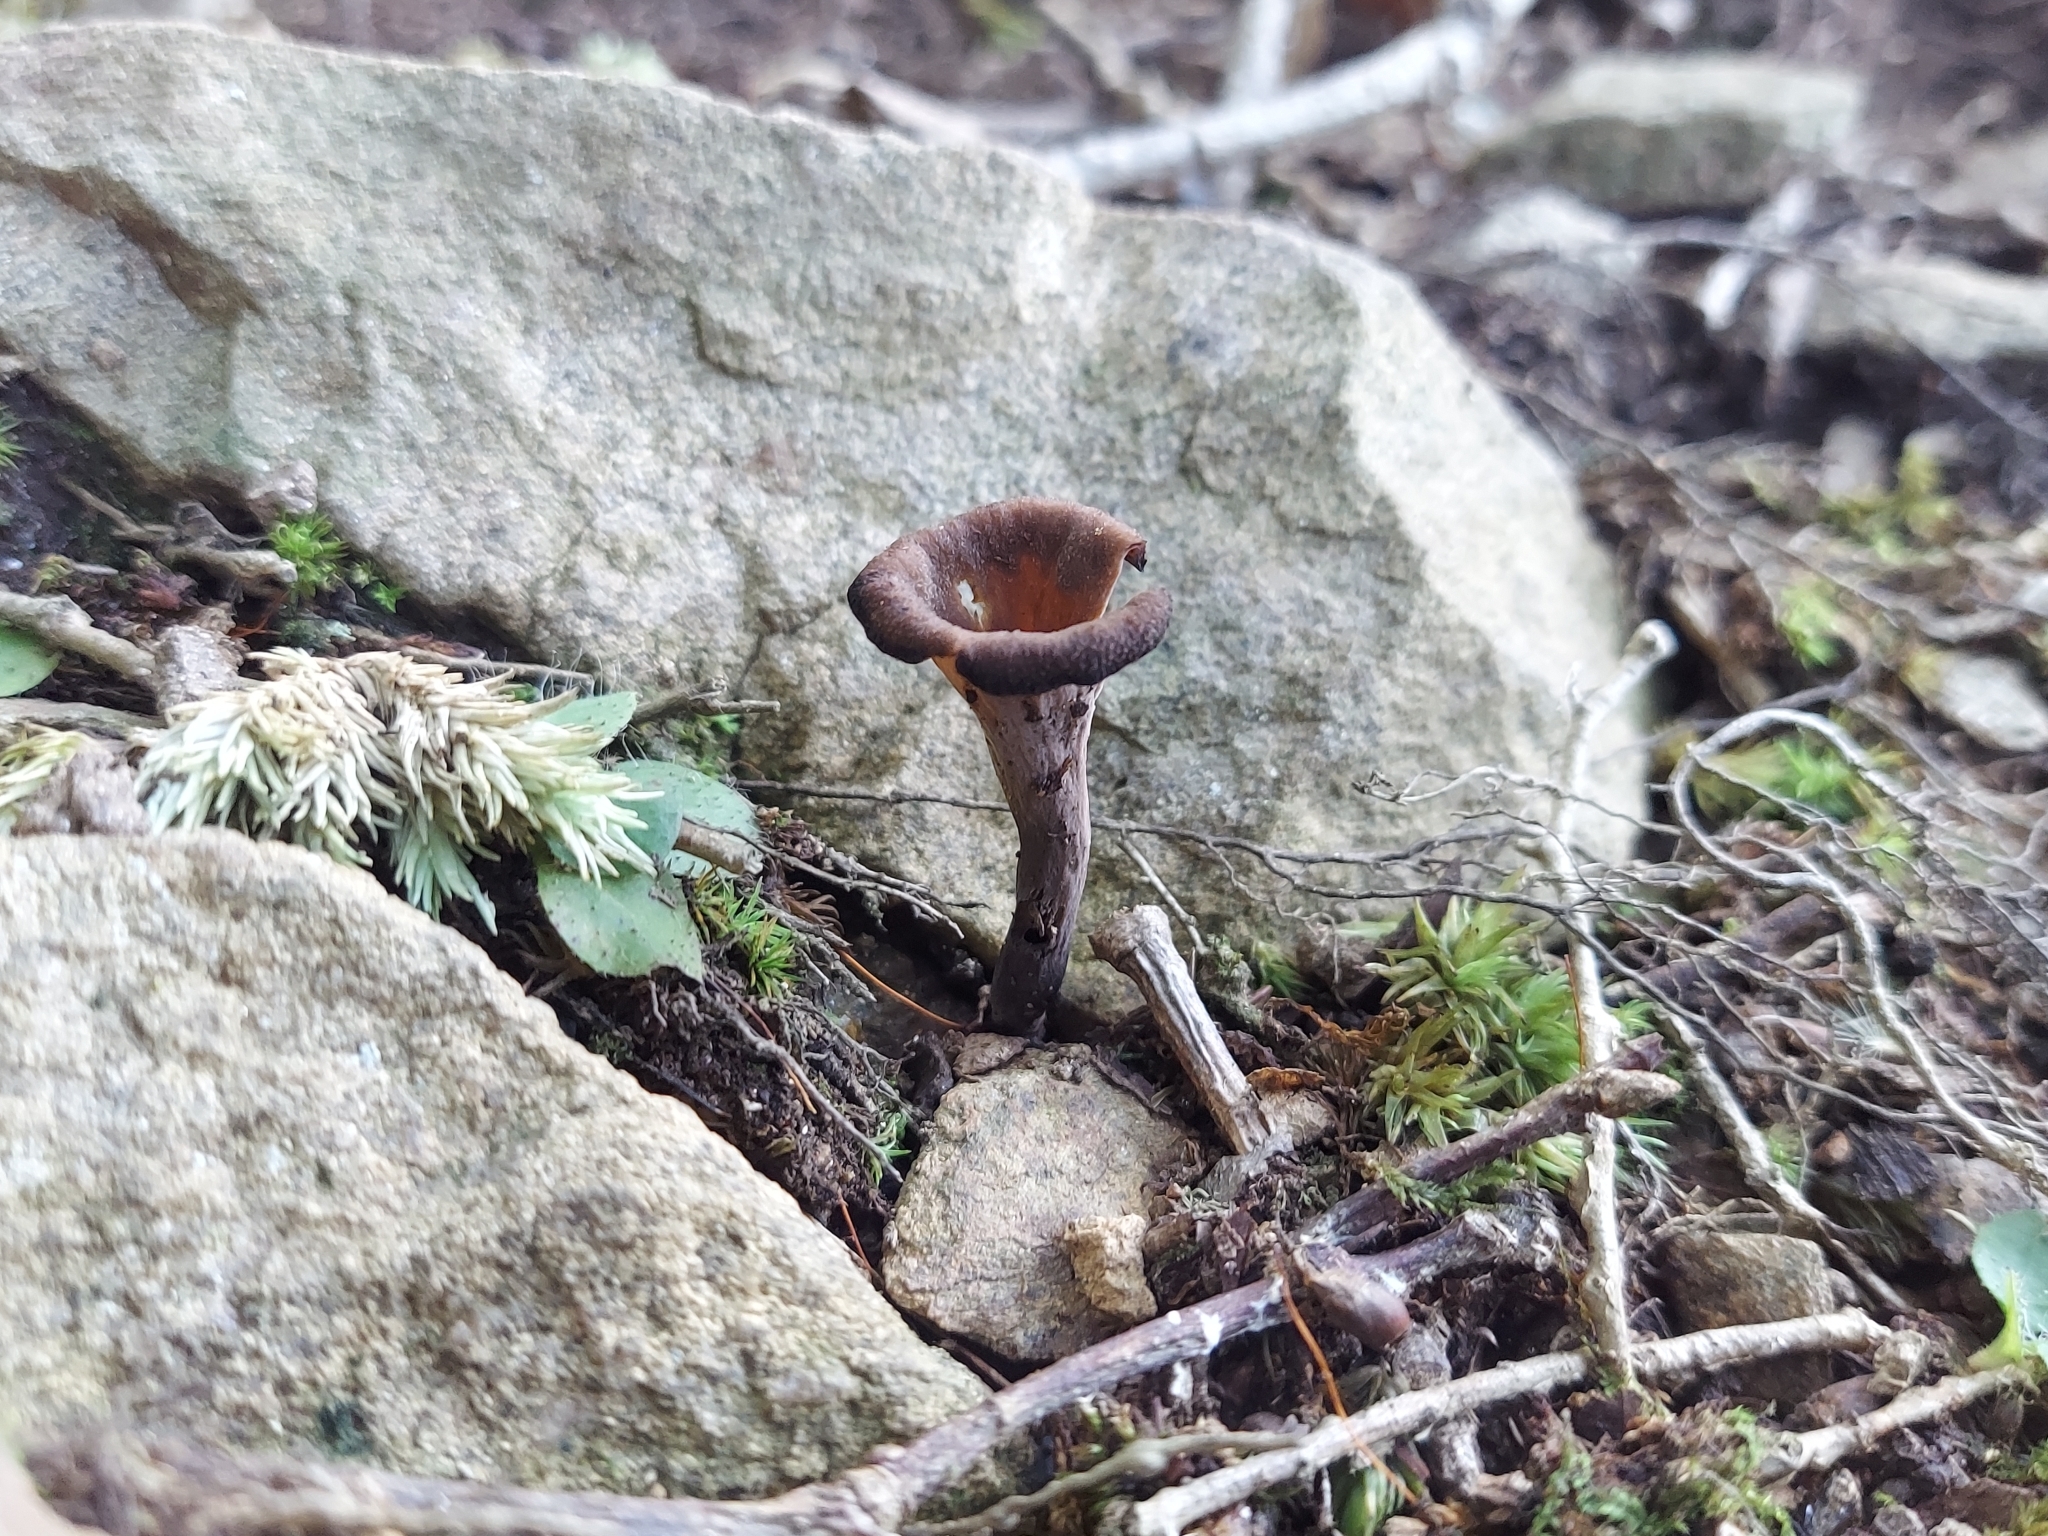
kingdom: Fungi
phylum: Basidiomycota
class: Agaricomycetes
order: Cantharellales
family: Hydnaceae
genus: Craterellus
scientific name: Craterellus cornucopioides
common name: Horn of plenty
